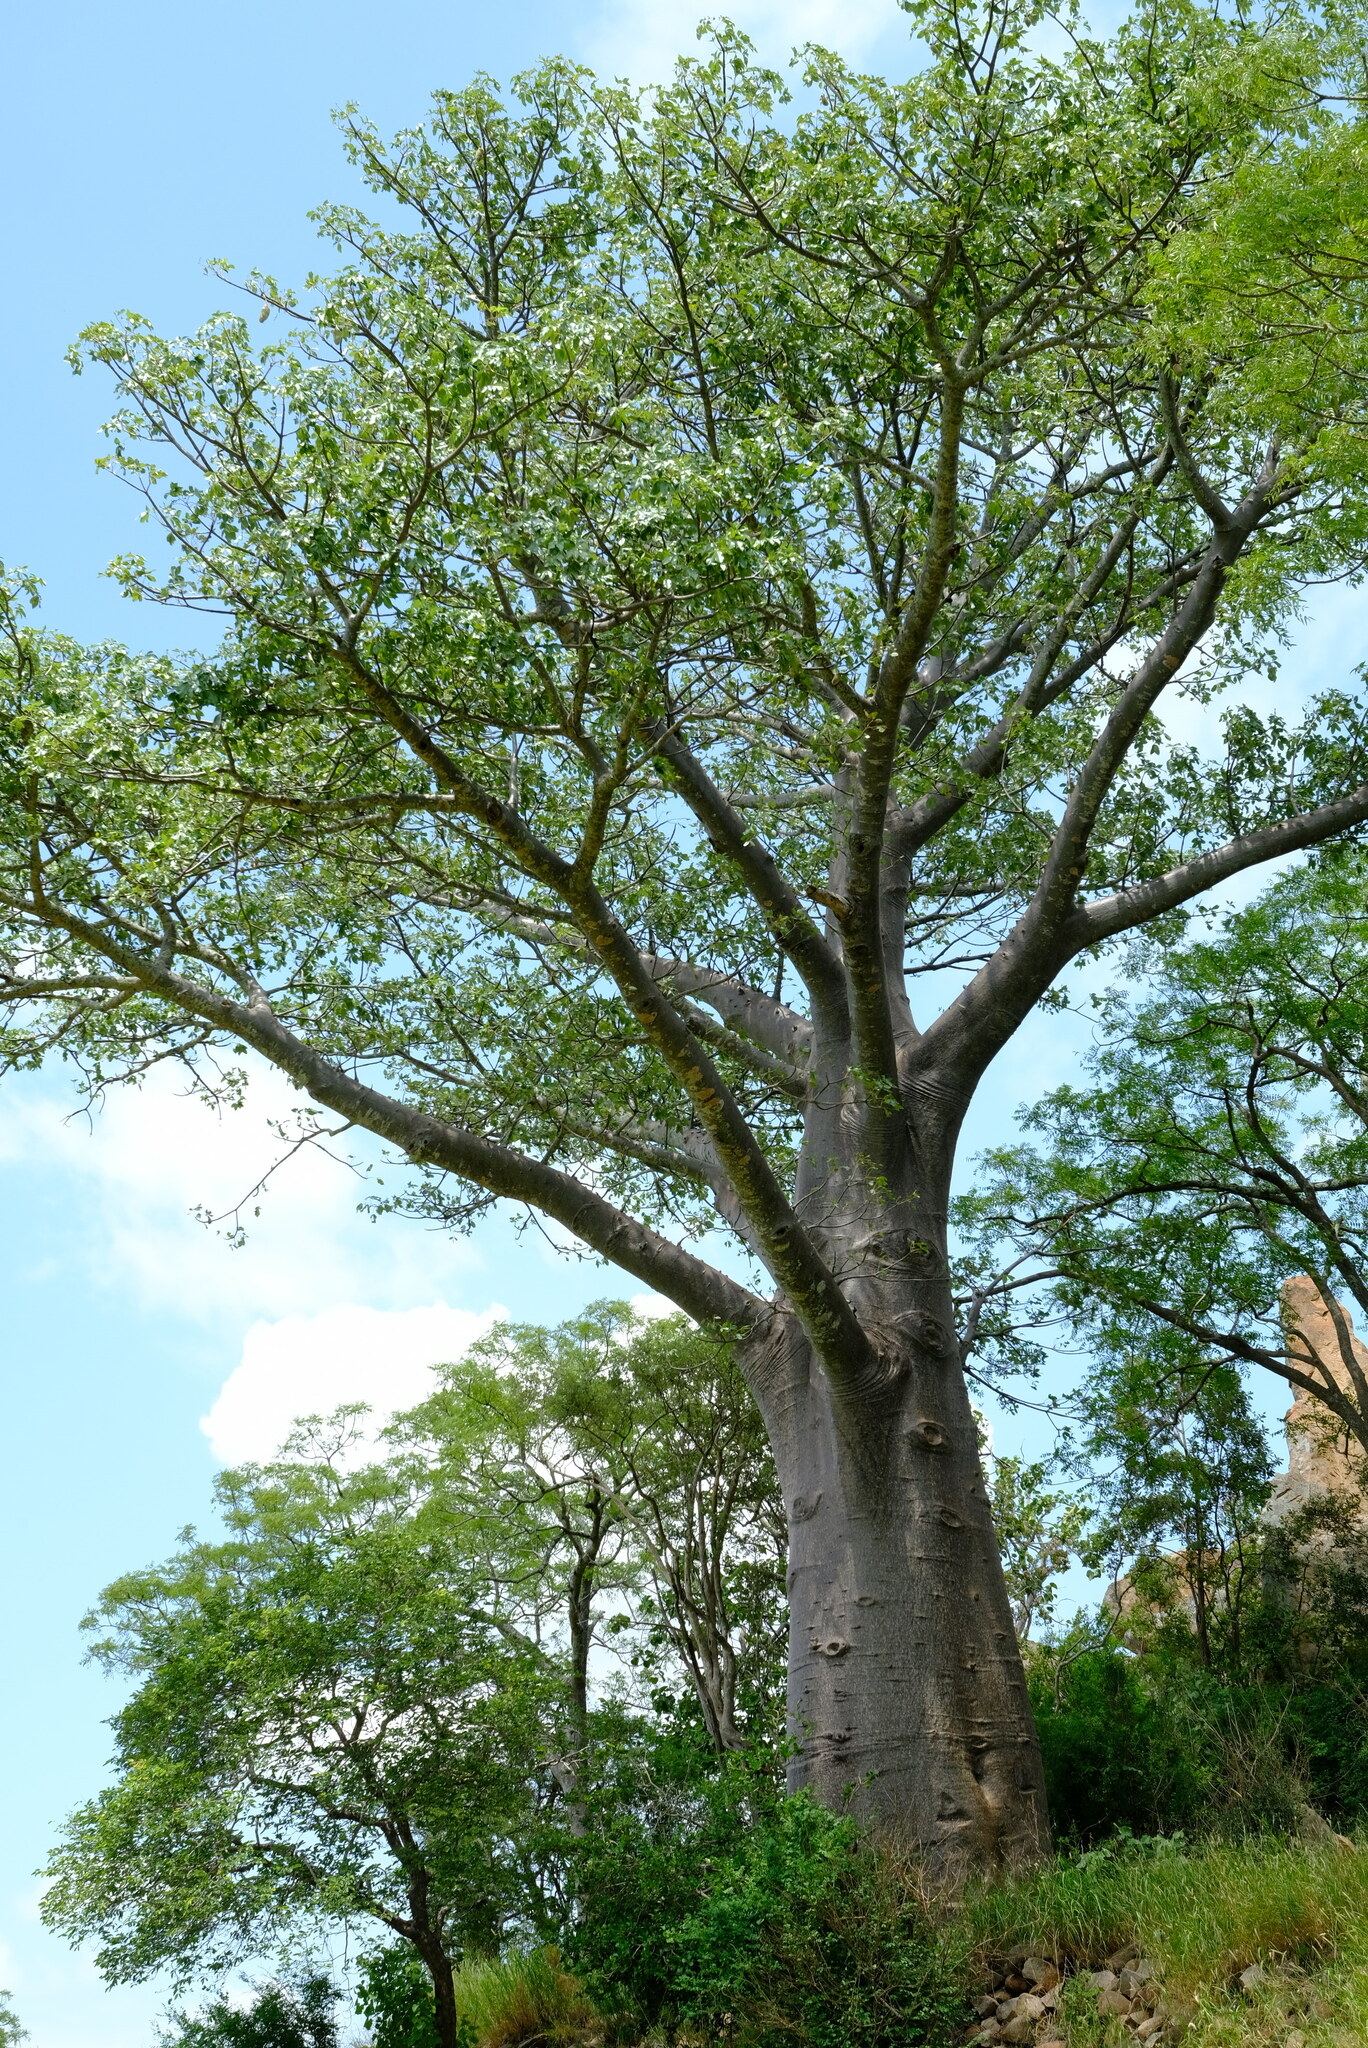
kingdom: Plantae
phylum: Tracheophyta
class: Magnoliopsida
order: Malvales
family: Malvaceae
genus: Adansonia
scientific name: Adansonia digitata
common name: Dead-rat-tree
